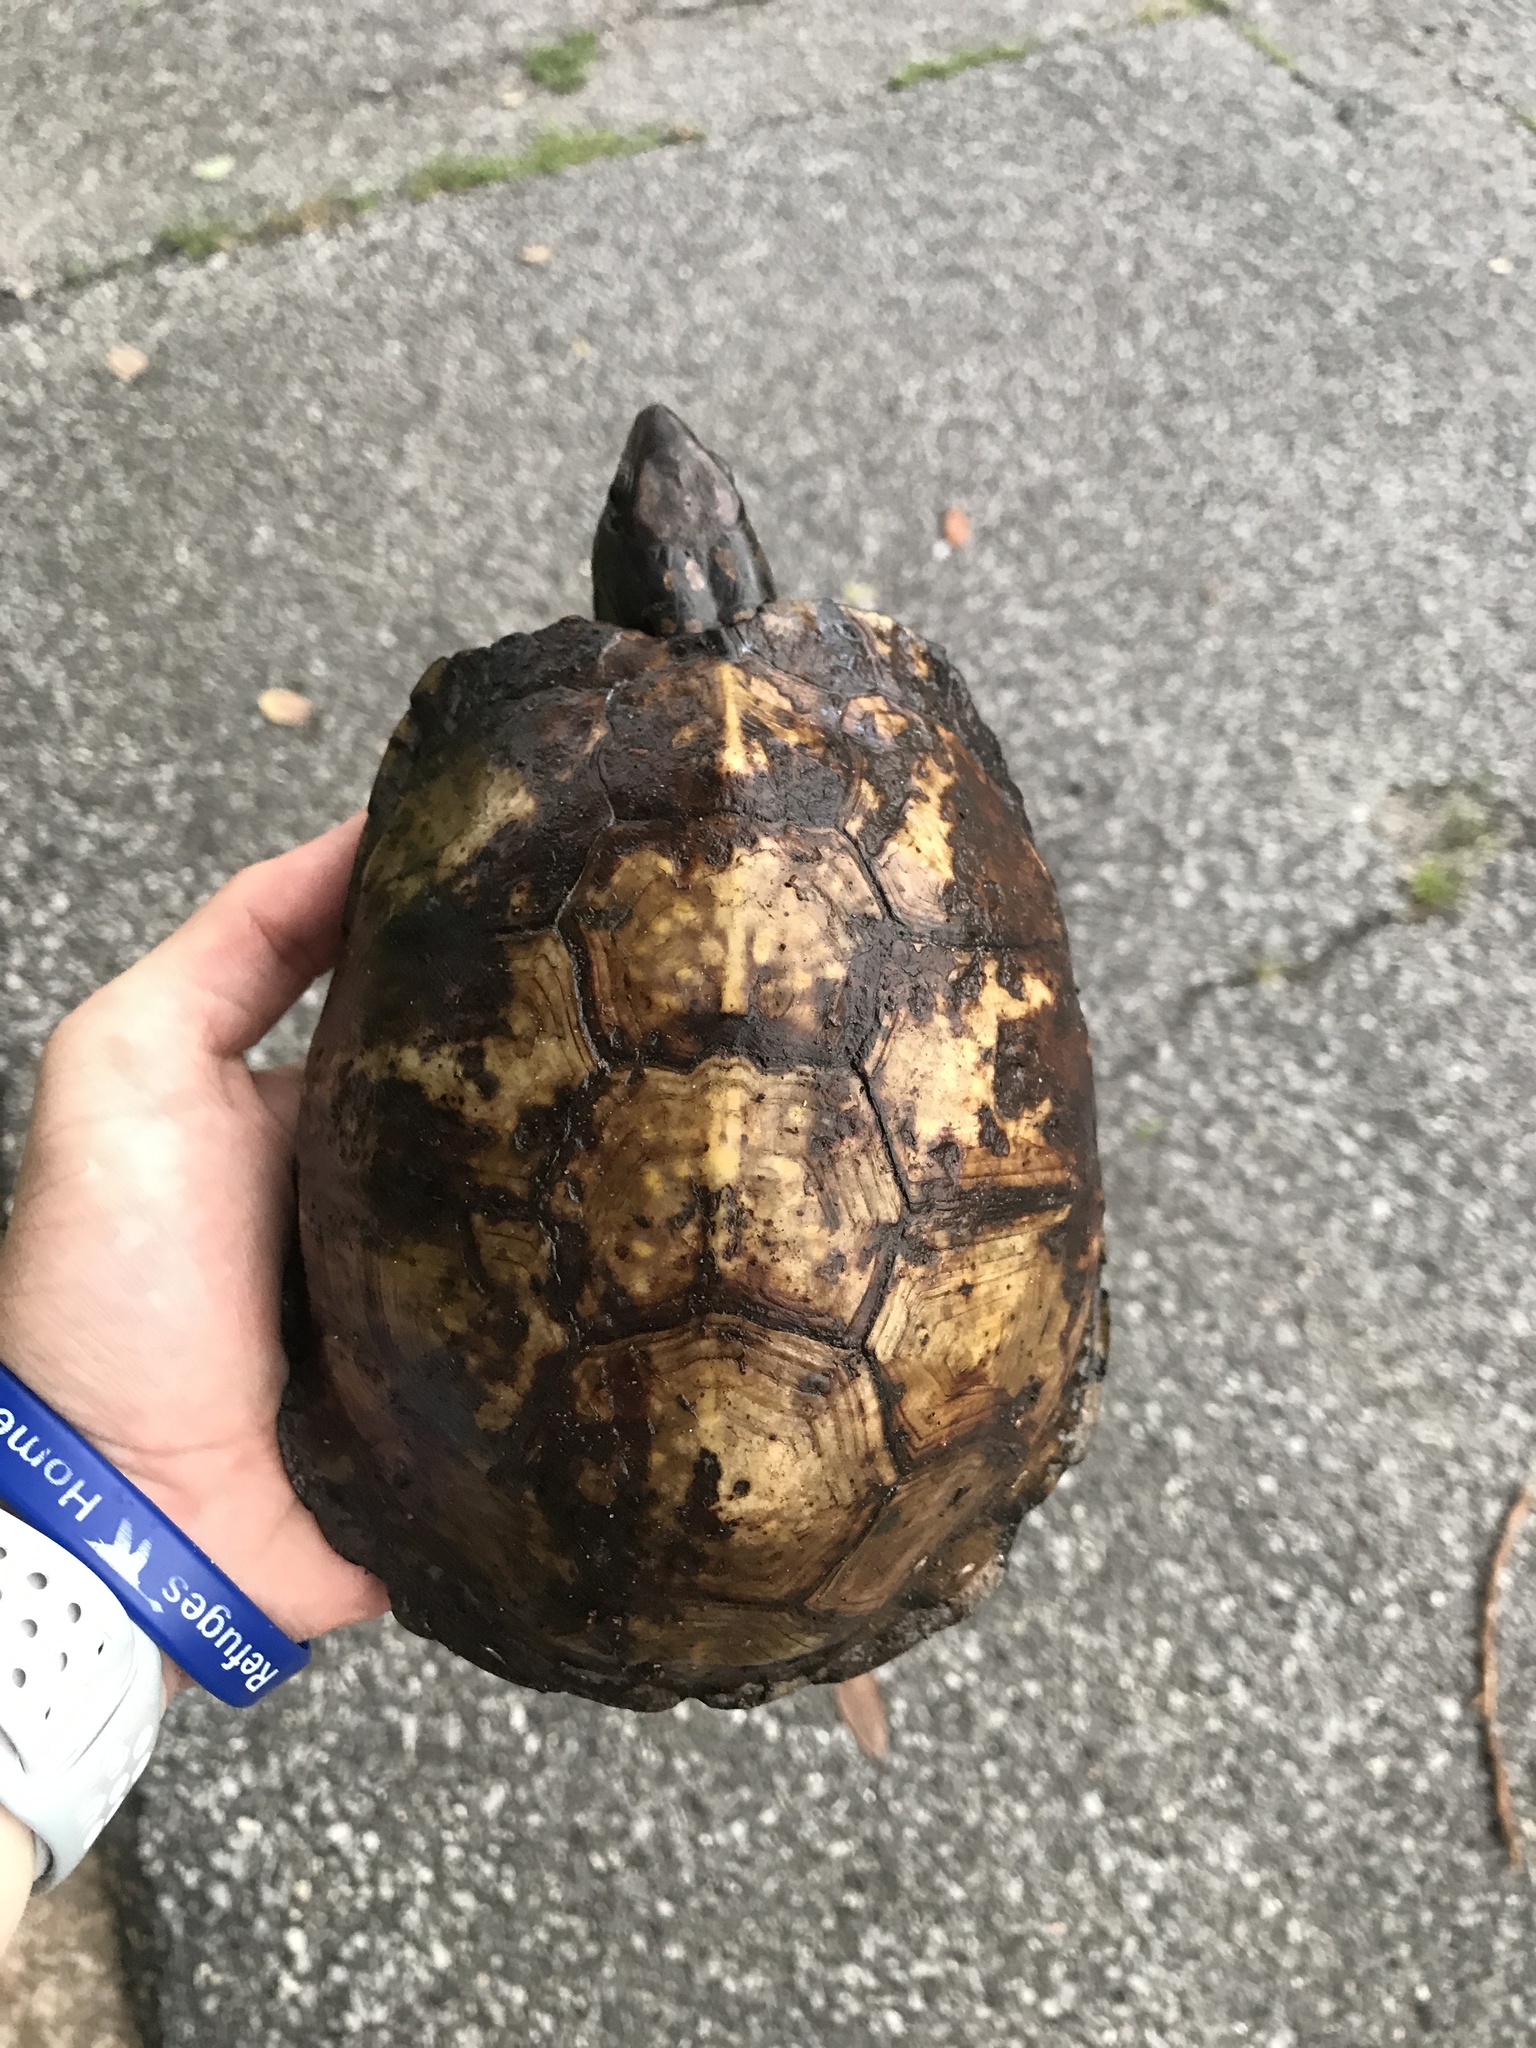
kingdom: Animalia
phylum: Chordata
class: Testudines
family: Emydidae
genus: Terrapene
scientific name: Terrapene carolina
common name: Common box turtle
